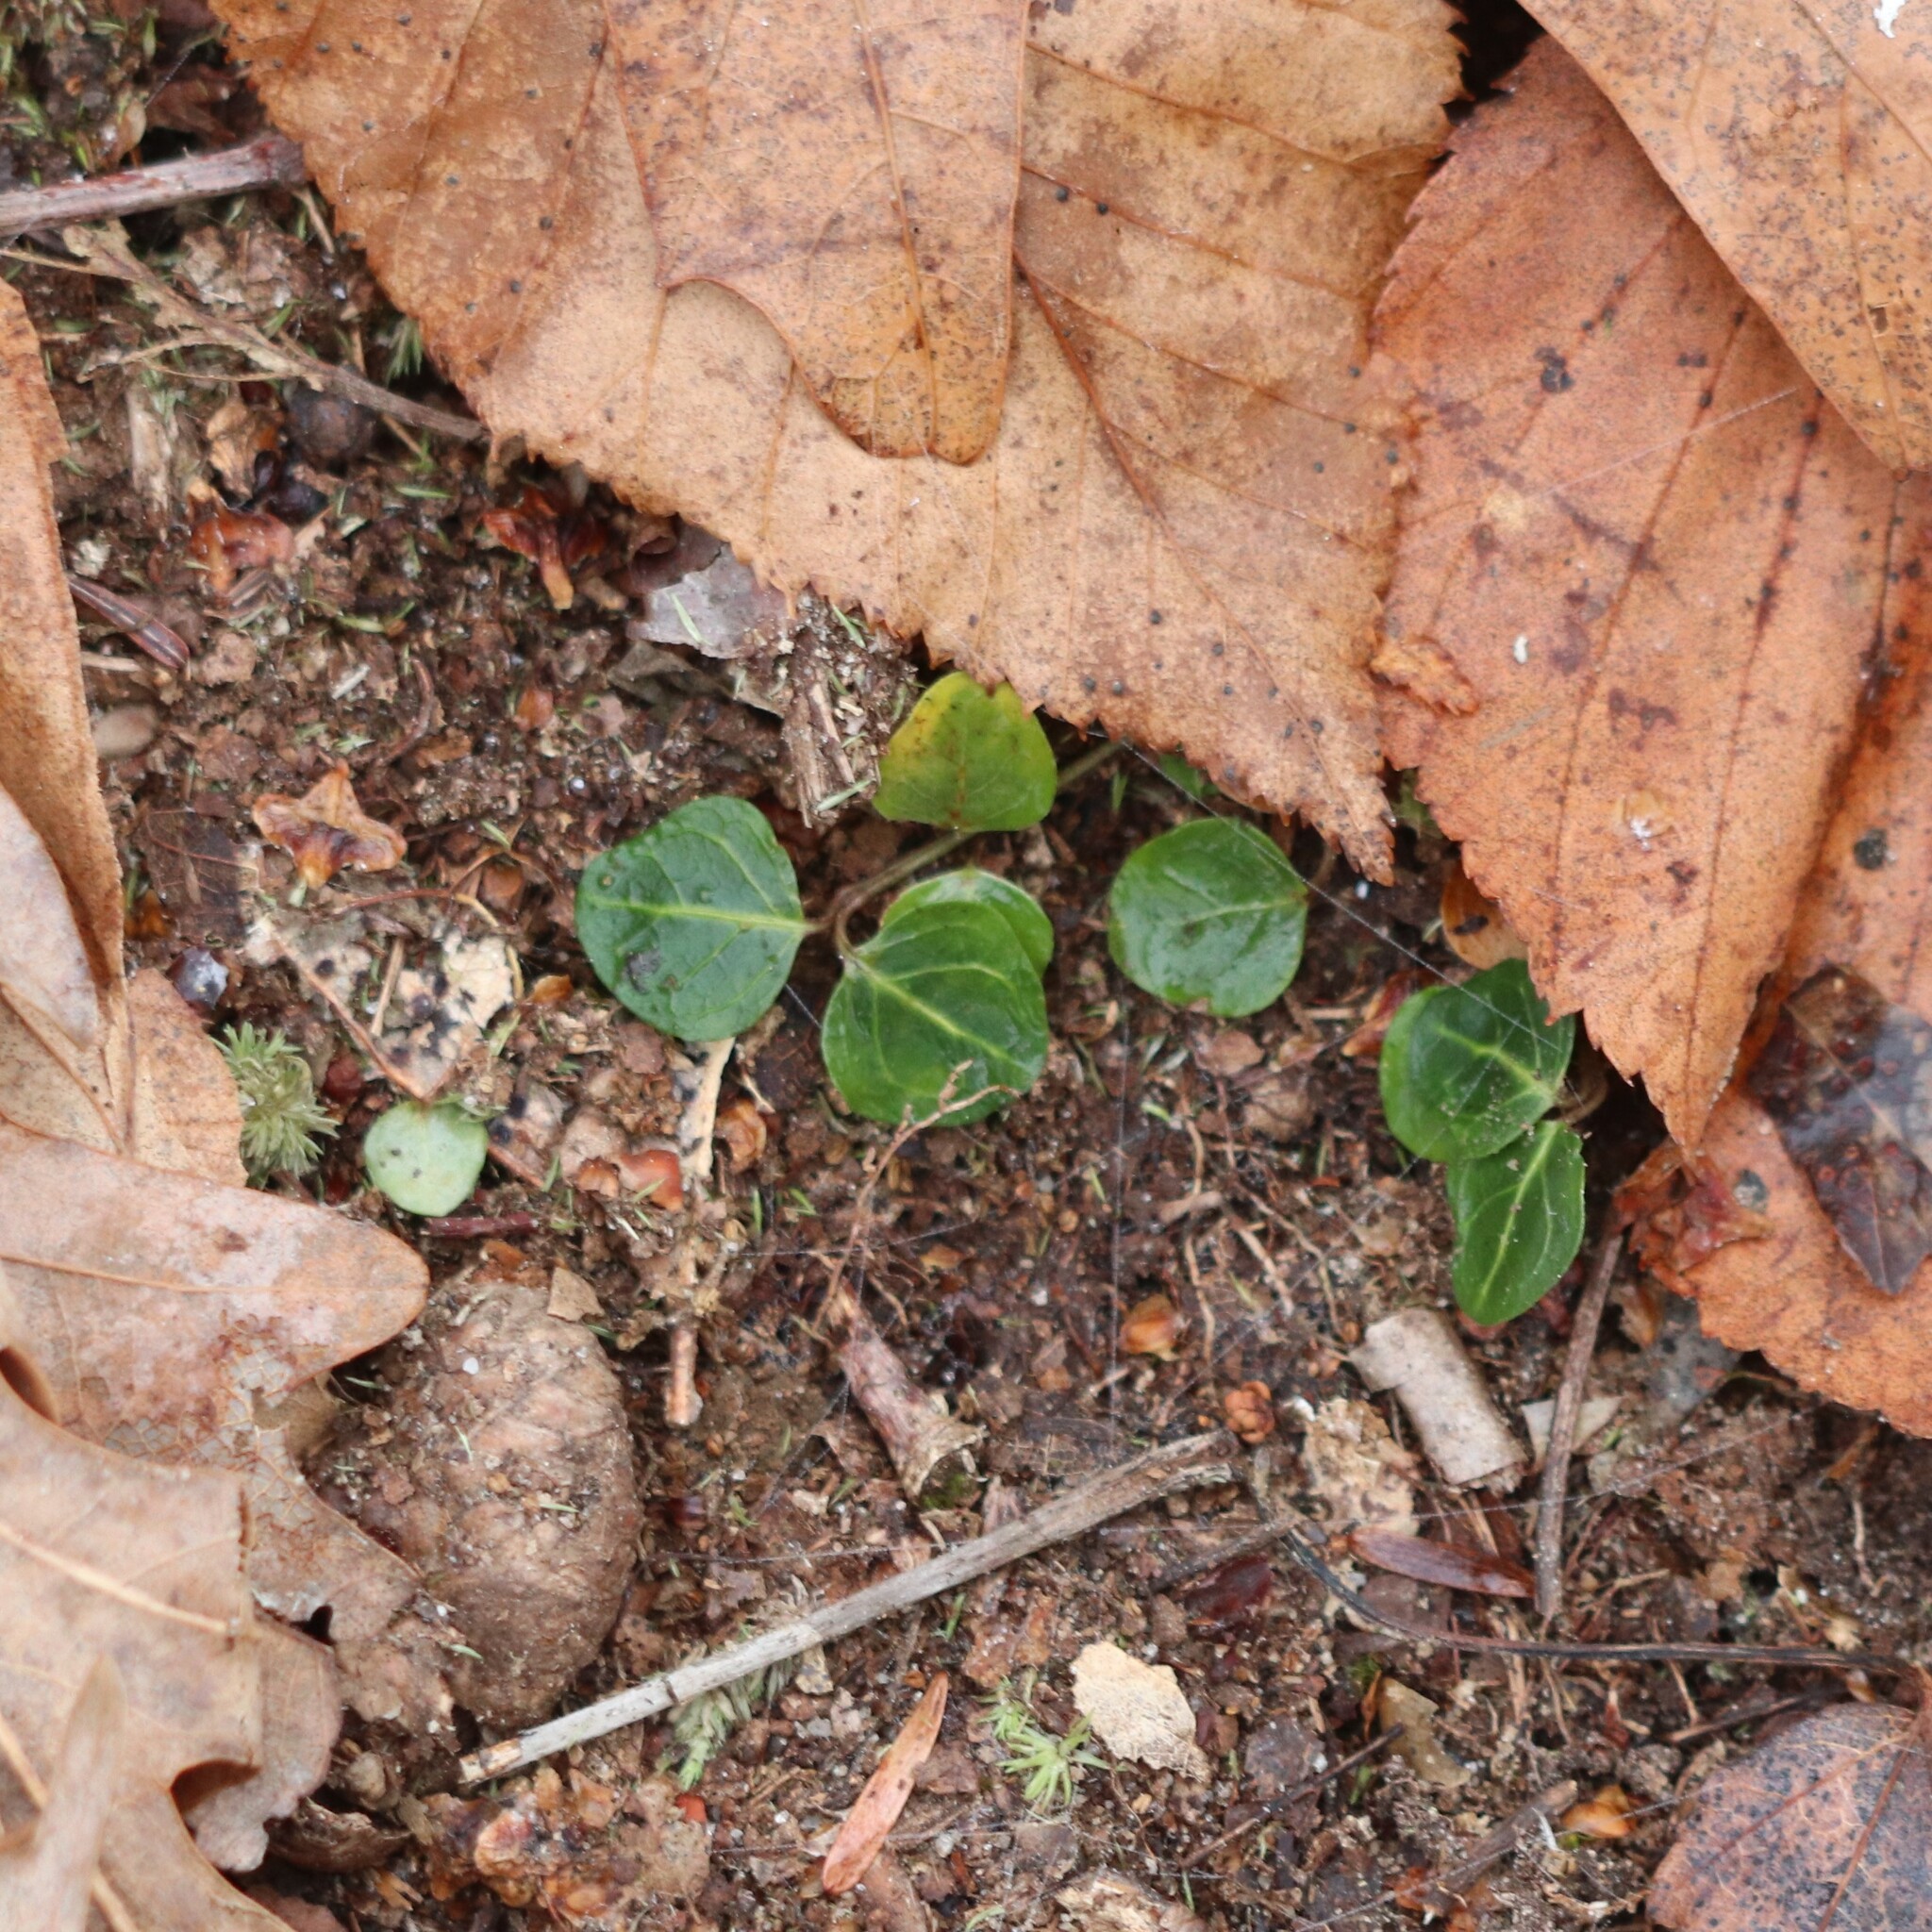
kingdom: Plantae
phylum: Tracheophyta
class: Magnoliopsida
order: Gentianales
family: Rubiaceae
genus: Mitchella
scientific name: Mitchella repens
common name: Partridge-berry
